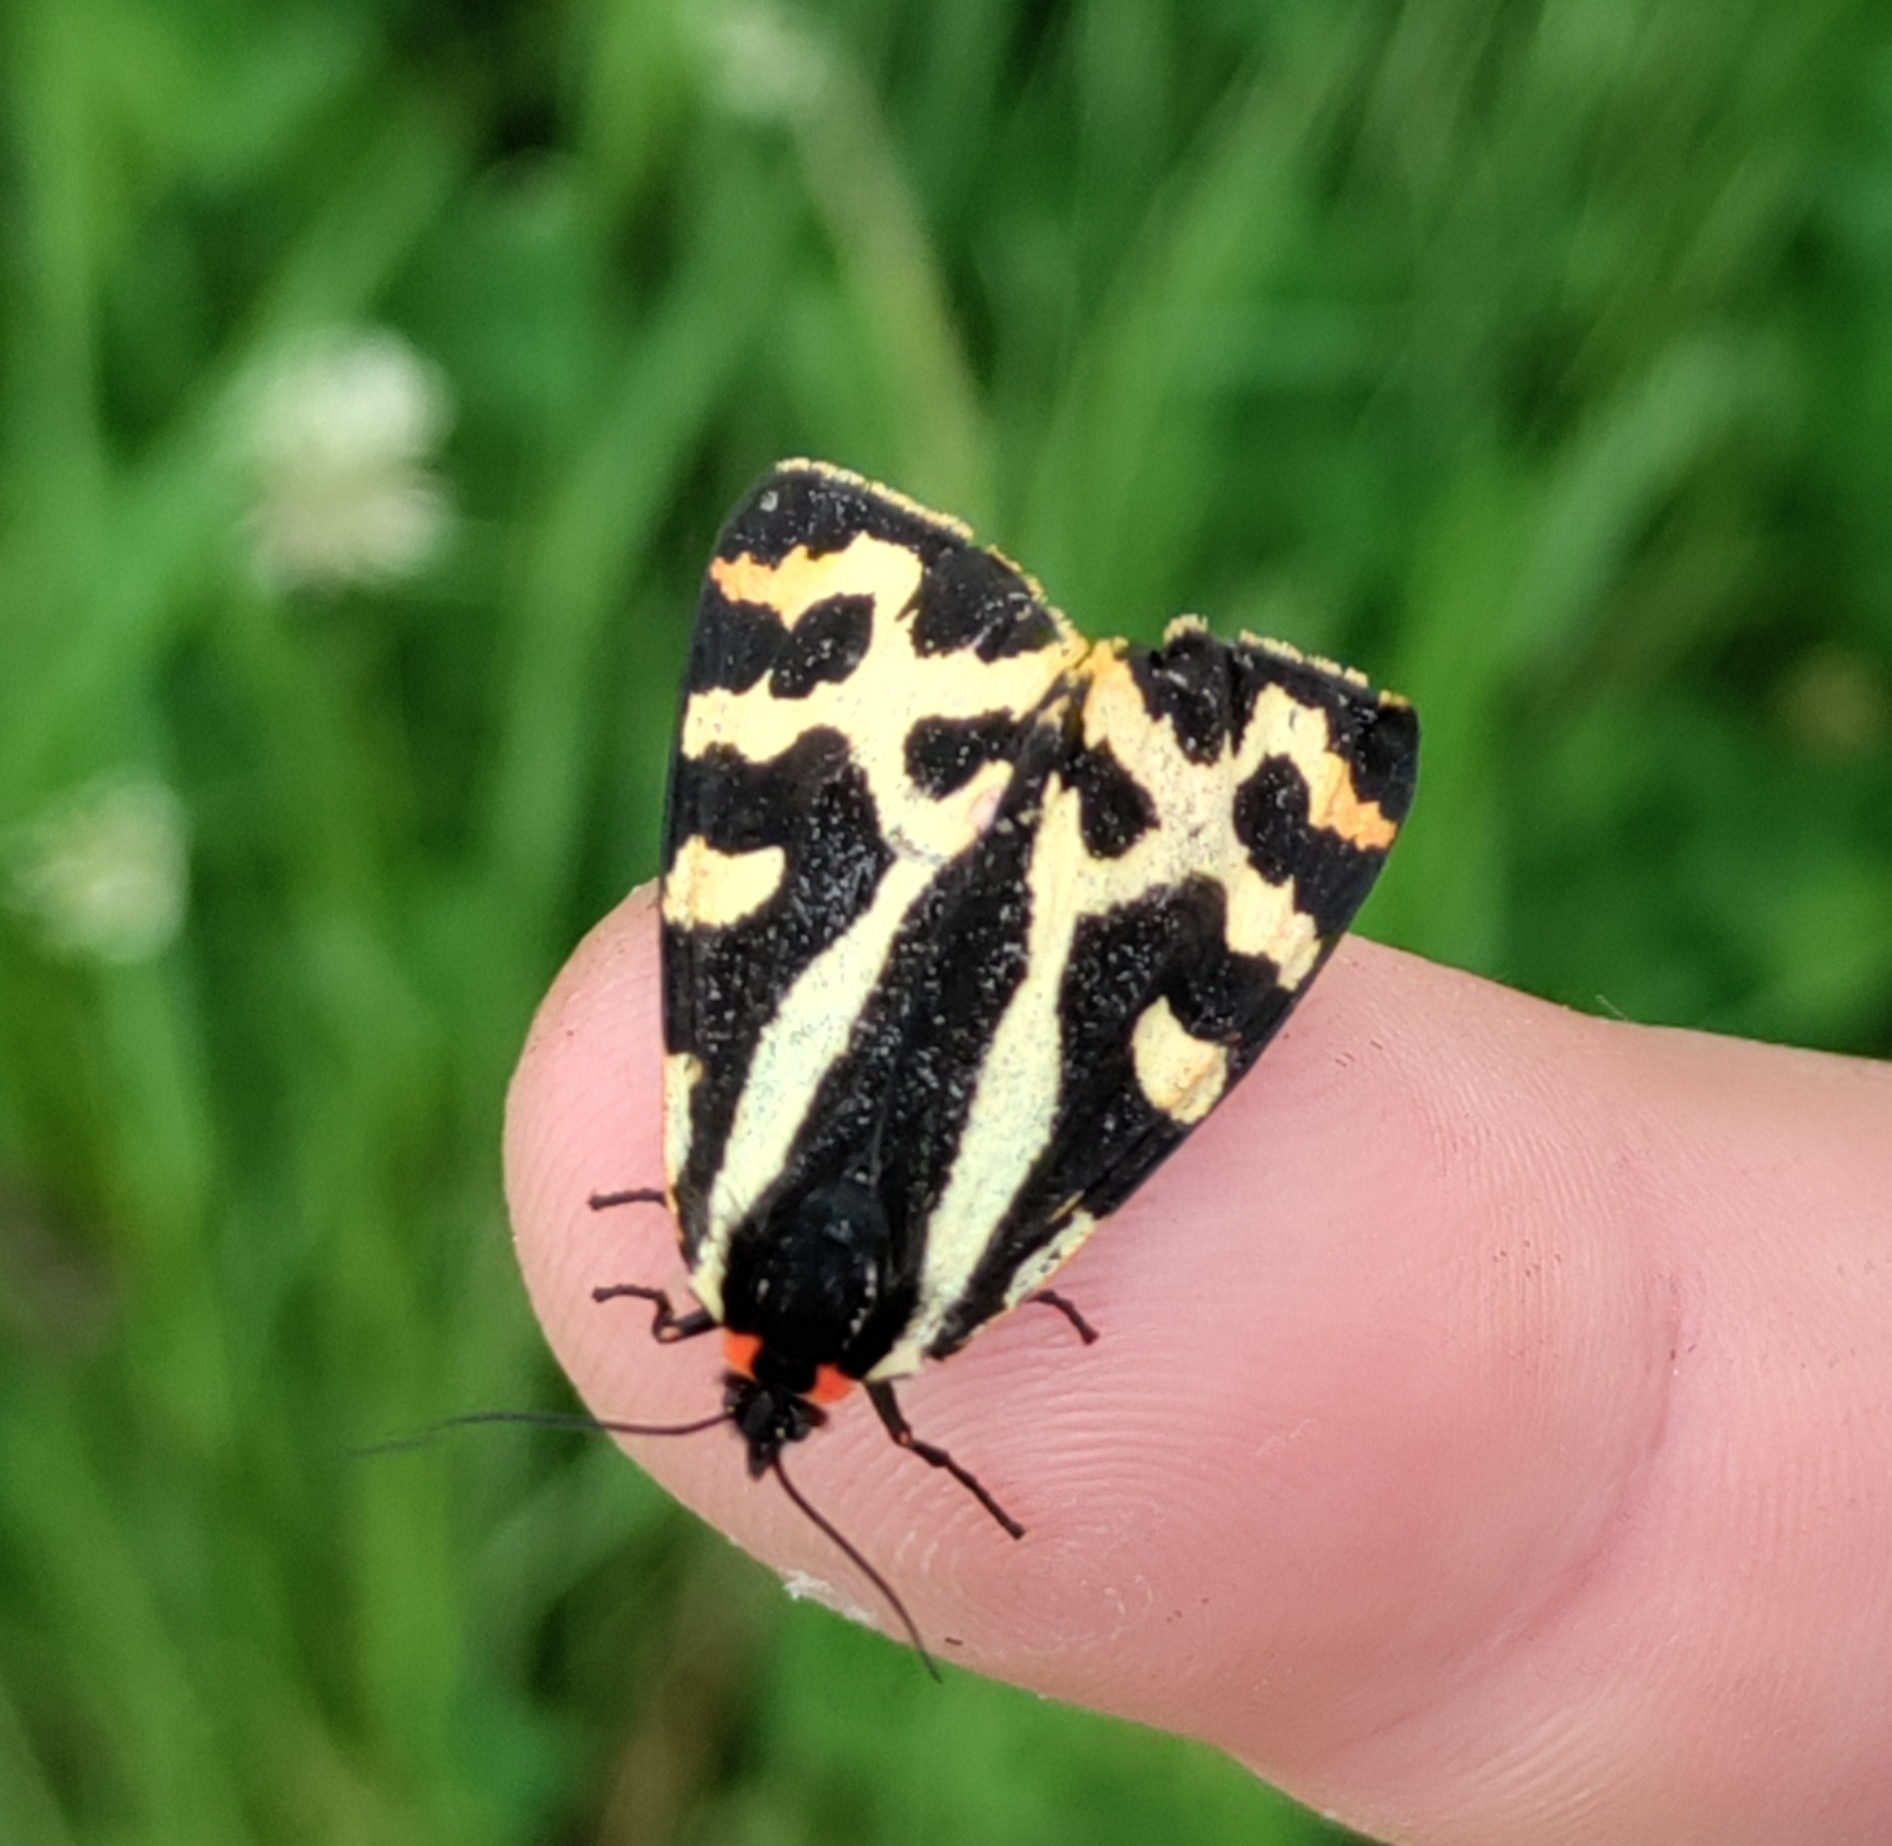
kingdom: Animalia
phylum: Arthropoda
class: Insecta
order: Lepidoptera
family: Erebidae
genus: Parasemia
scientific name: Parasemia plantaginis
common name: Wood tiger
